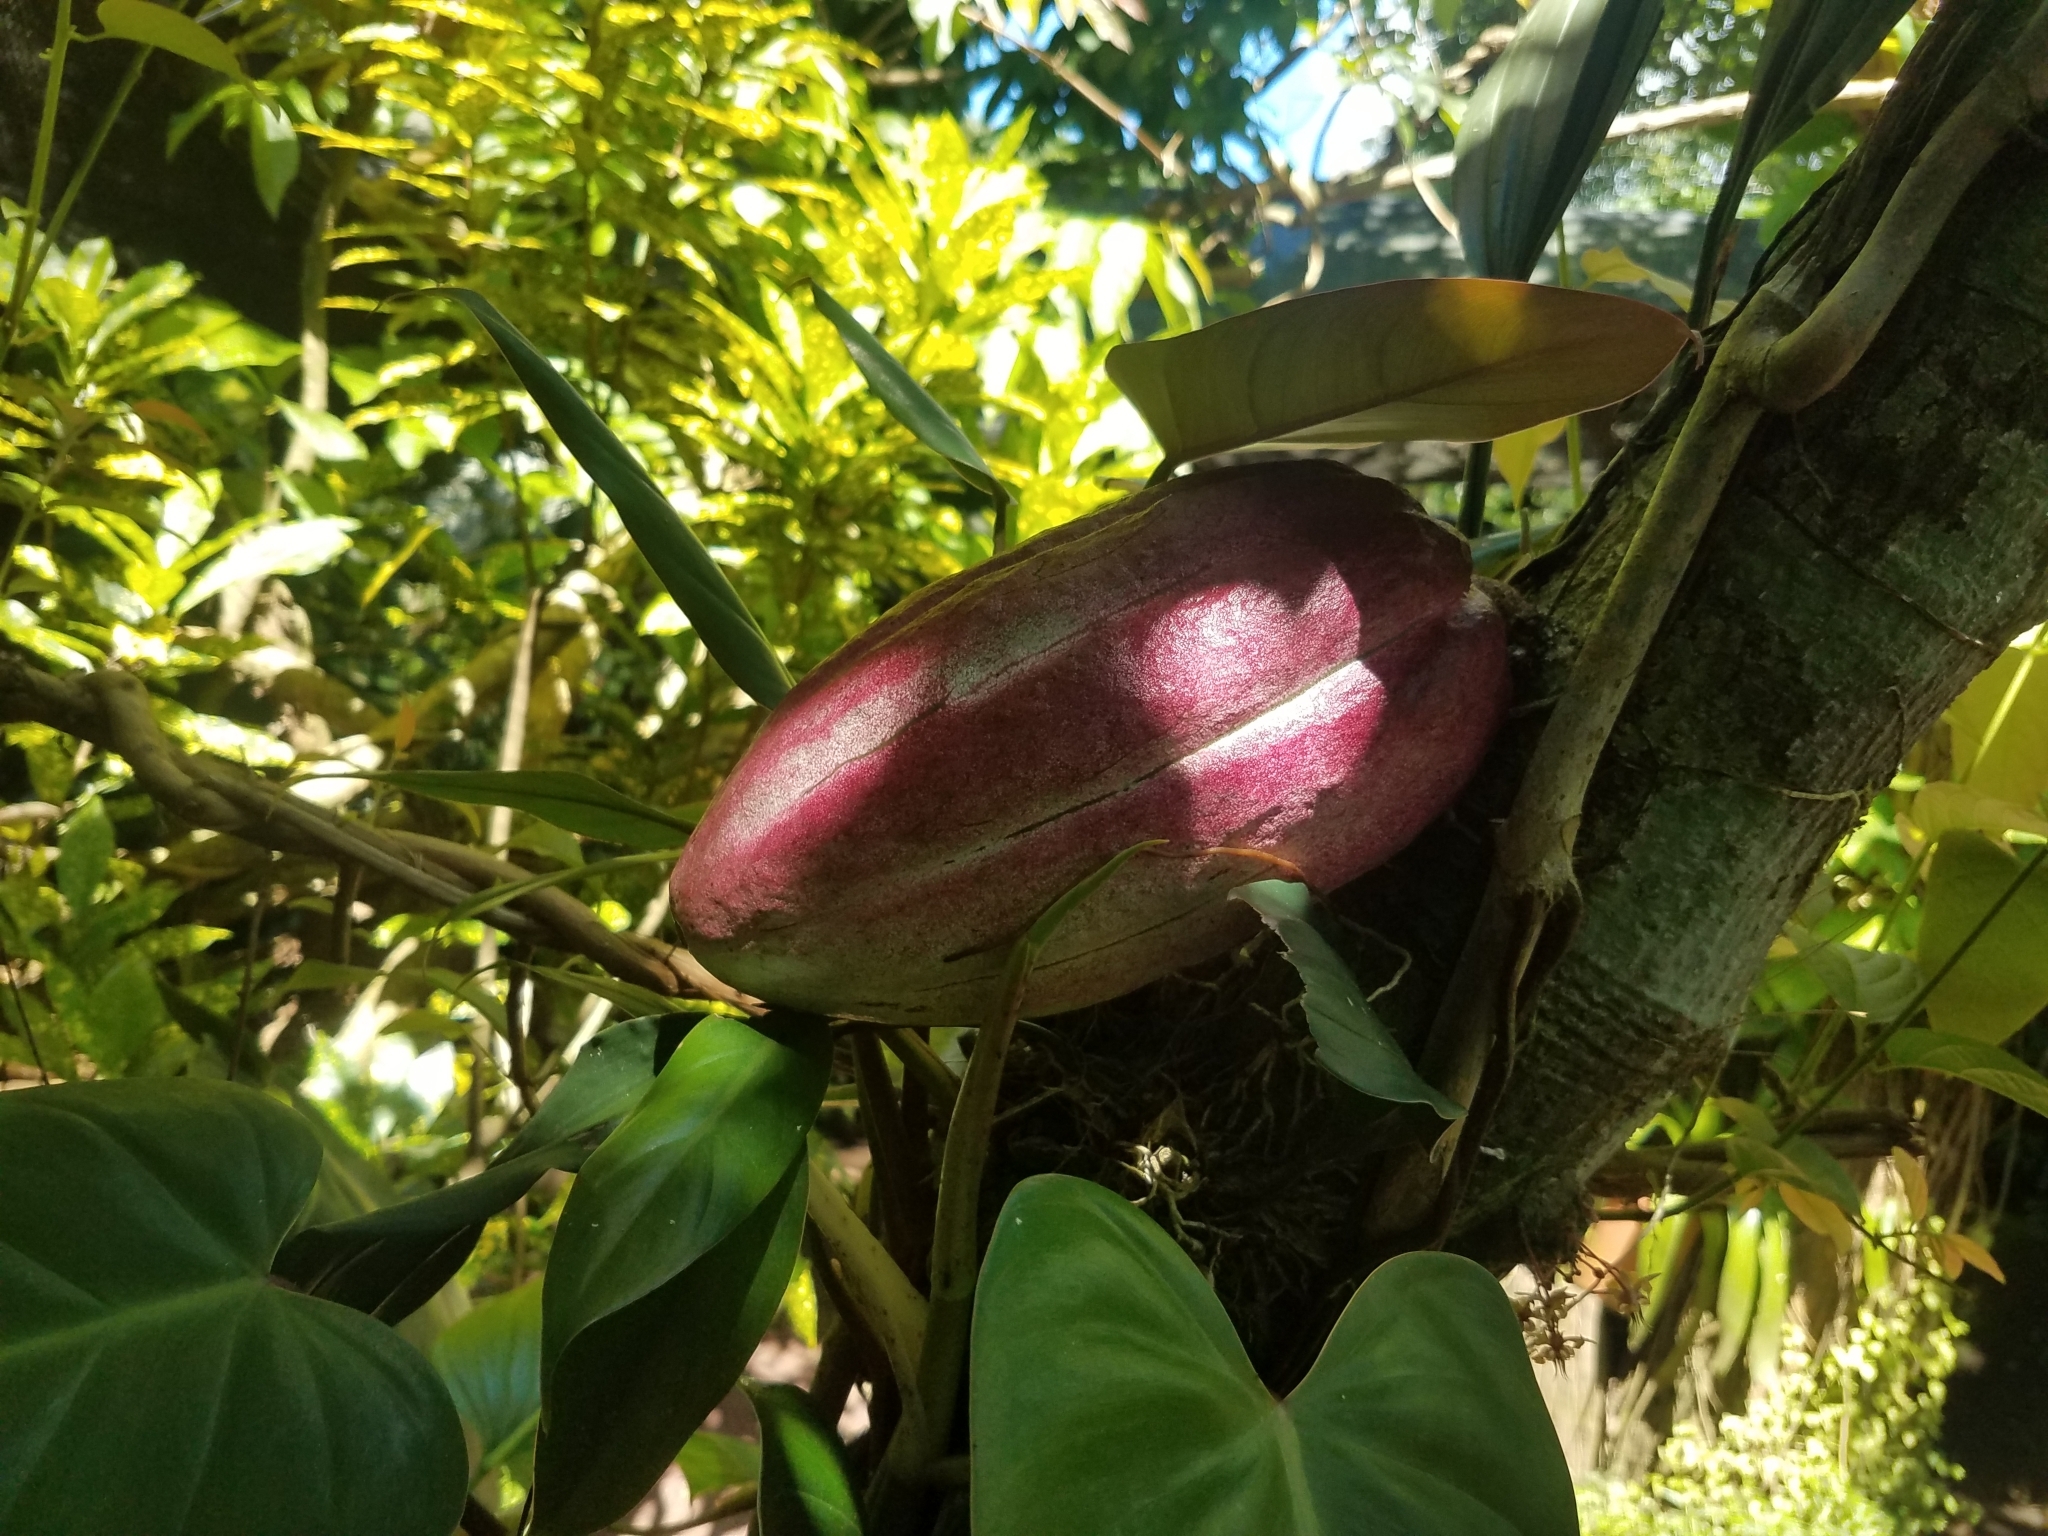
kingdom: Plantae
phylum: Tracheophyta
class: Magnoliopsida
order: Malvales
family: Malvaceae
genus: Theobroma
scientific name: Theobroma cacao
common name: Cocoa
